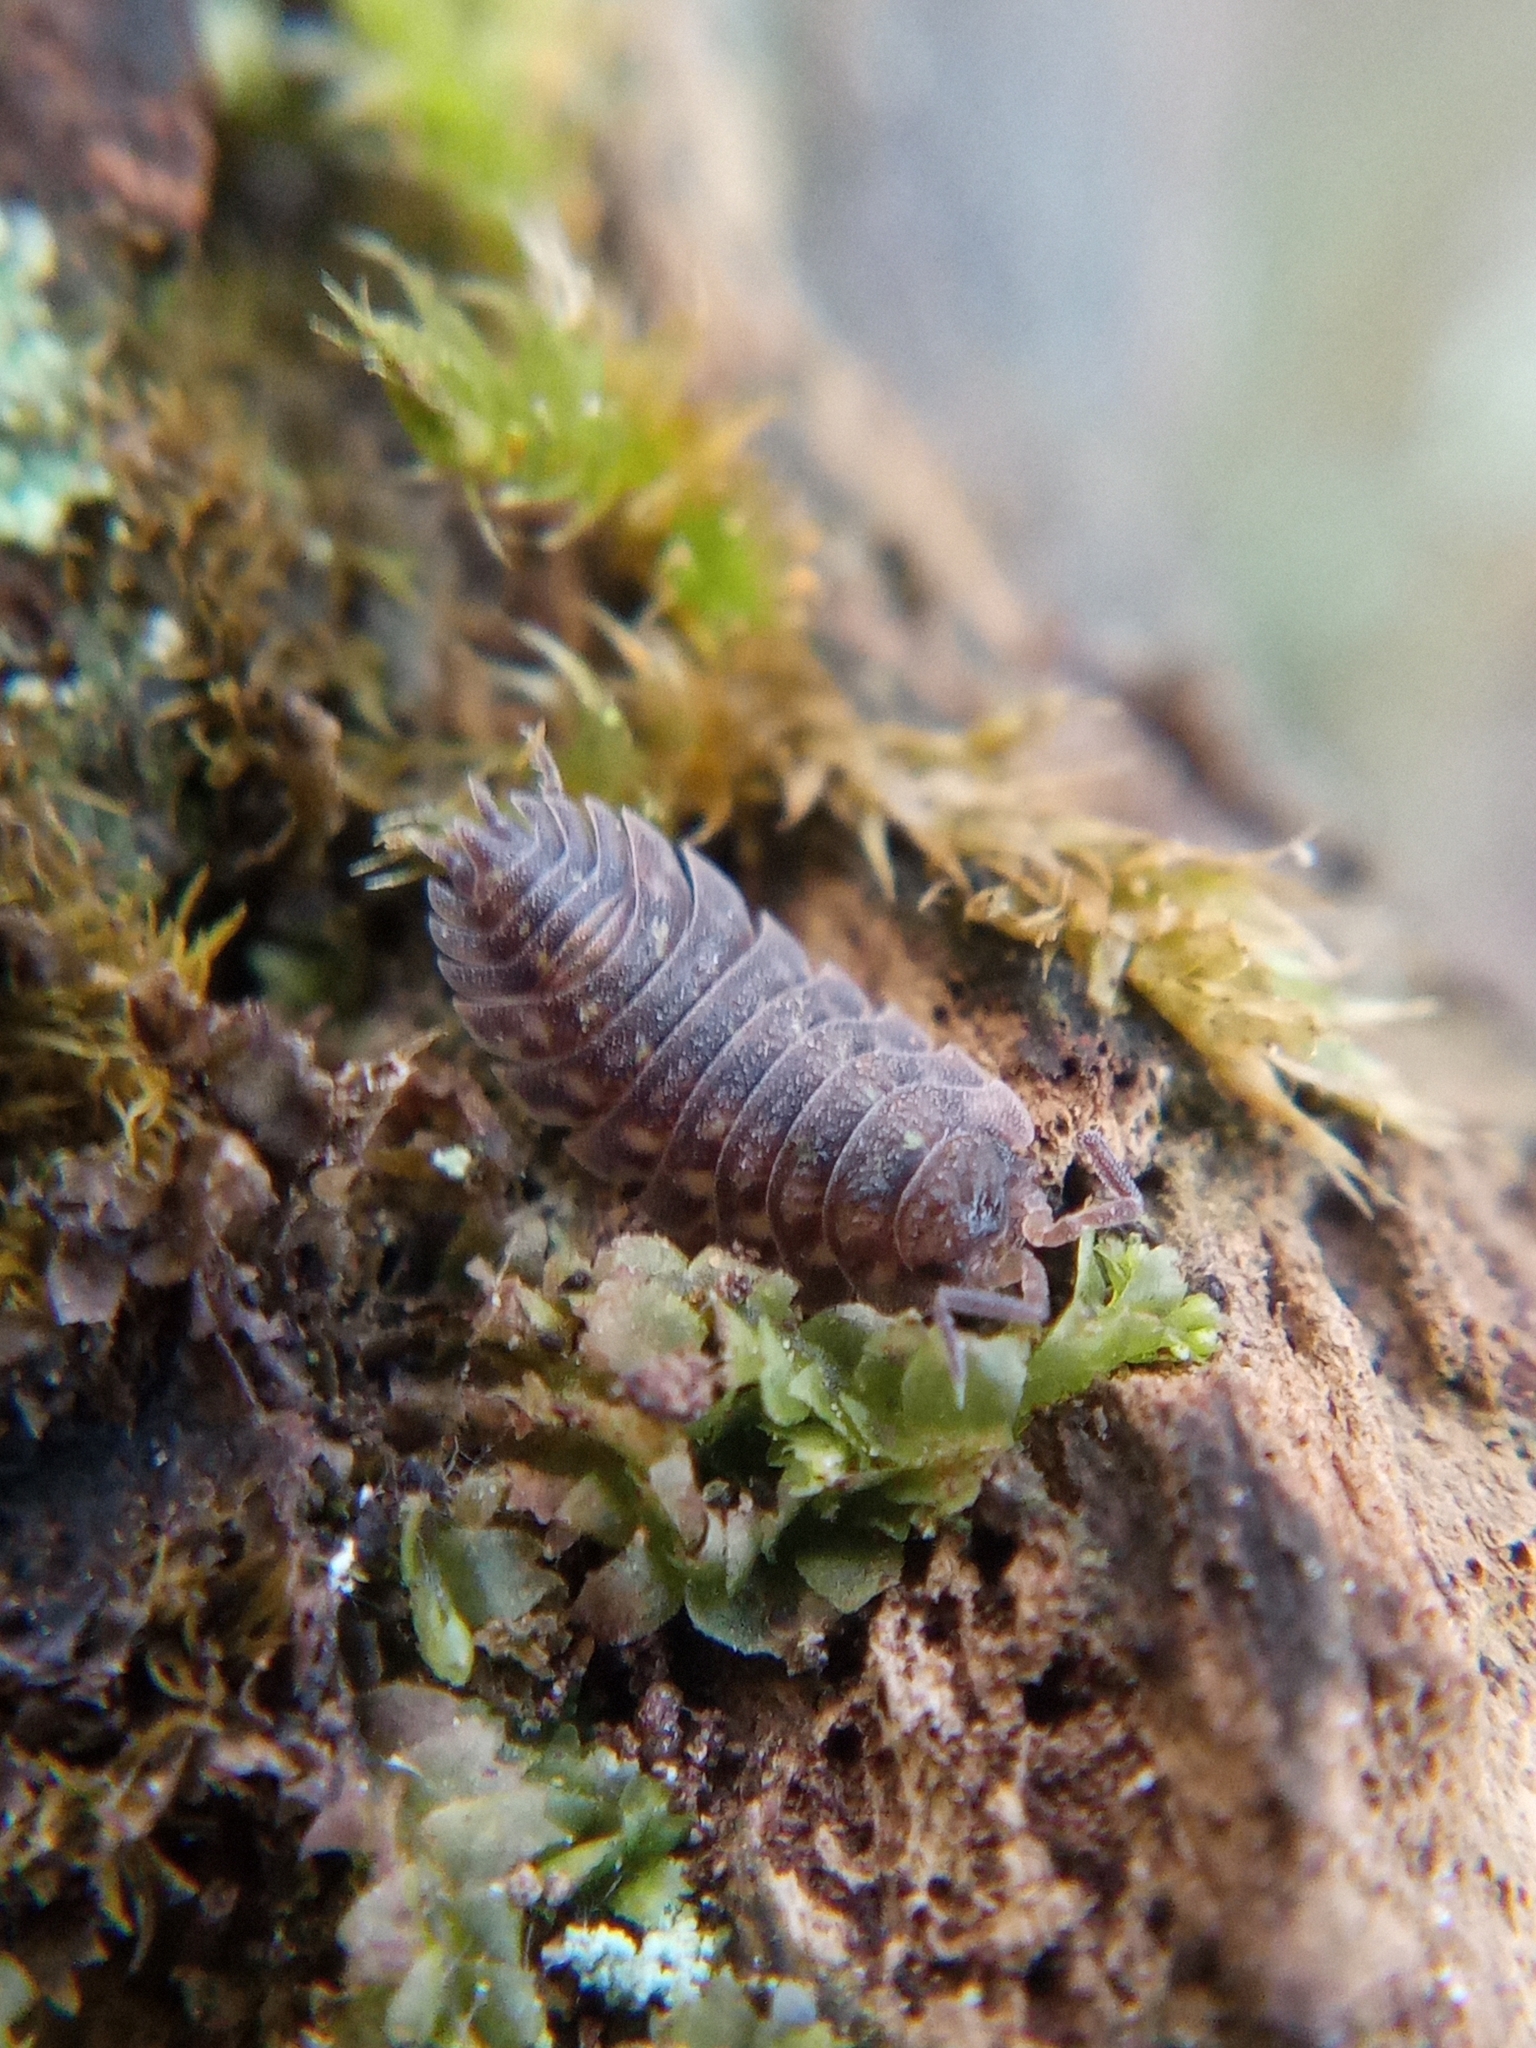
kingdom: Animalia
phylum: Arthropoda
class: Malacostraca
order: Isopoda
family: Oniscidae
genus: Oniscus
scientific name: Oniscus asellus
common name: Common shiny woodlouse
